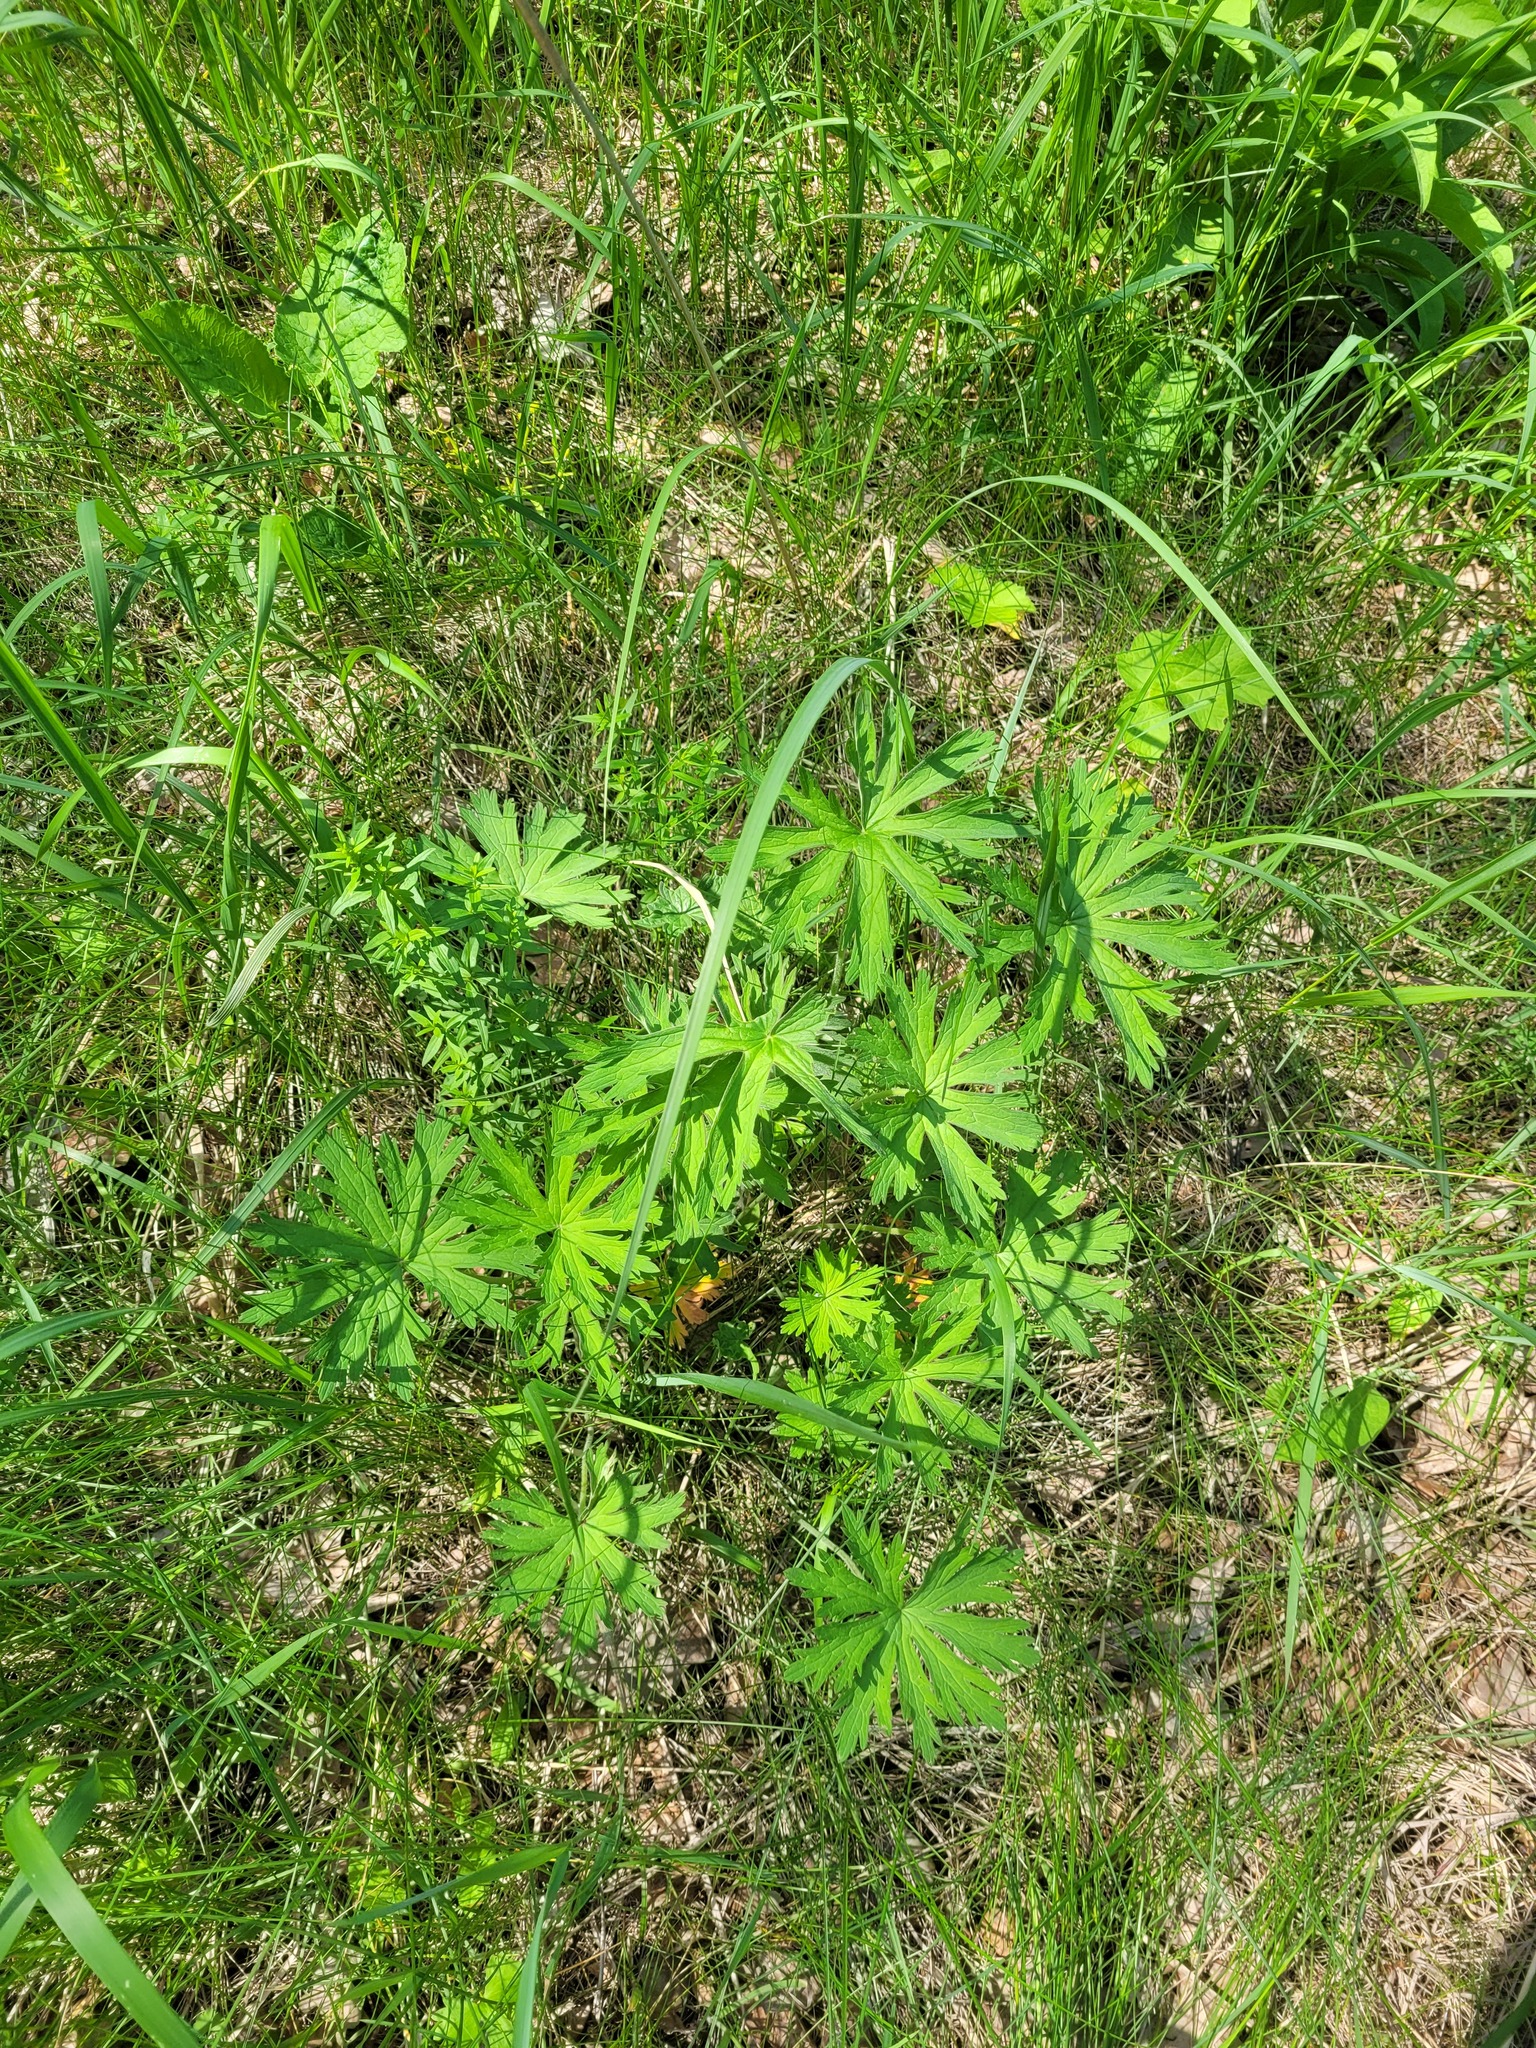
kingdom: Plantae
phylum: Tracheophyta
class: Magnoliopsida
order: Geraniales
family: Geraniaceae
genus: Geranium
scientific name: Geranium pratense
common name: Meadow crane's-bill
